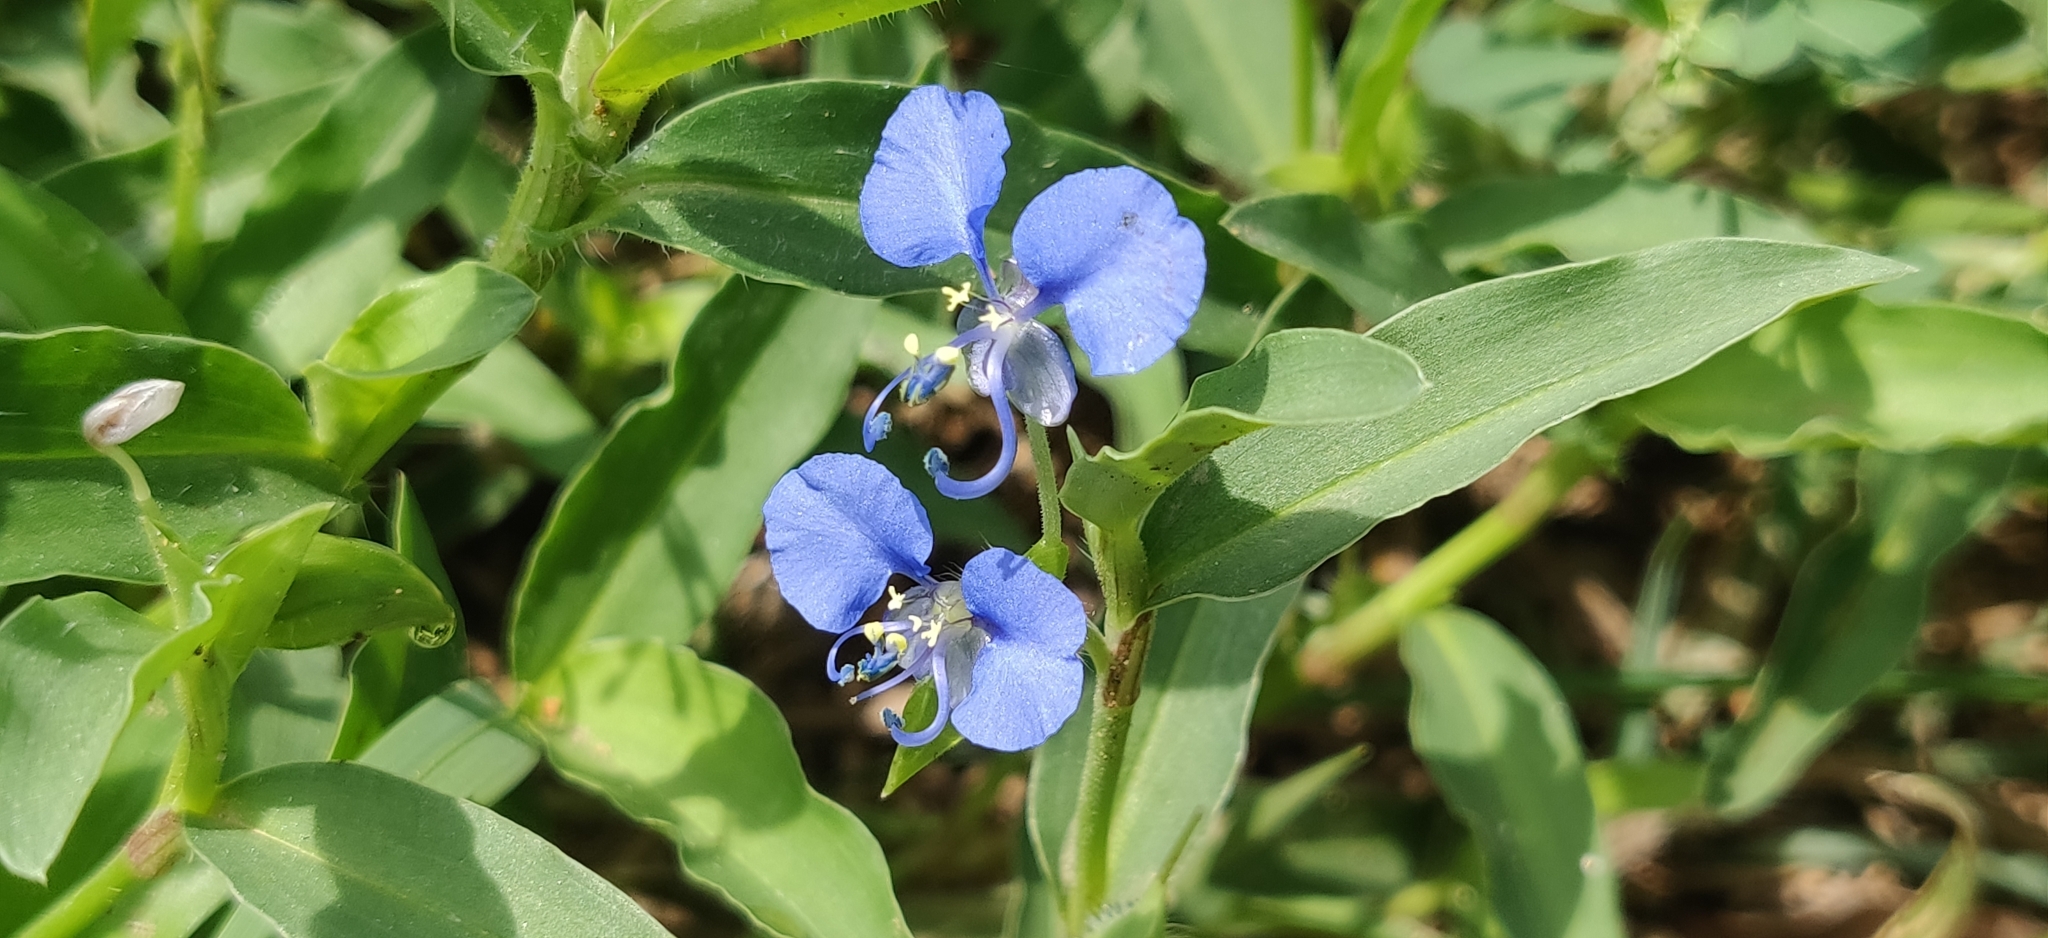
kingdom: Plantae
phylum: Tracheophyta
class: Liliopsida
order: Commelinales
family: Commelinaceae
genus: Commelina
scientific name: Commelina forskaolii
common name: Rat's ear
